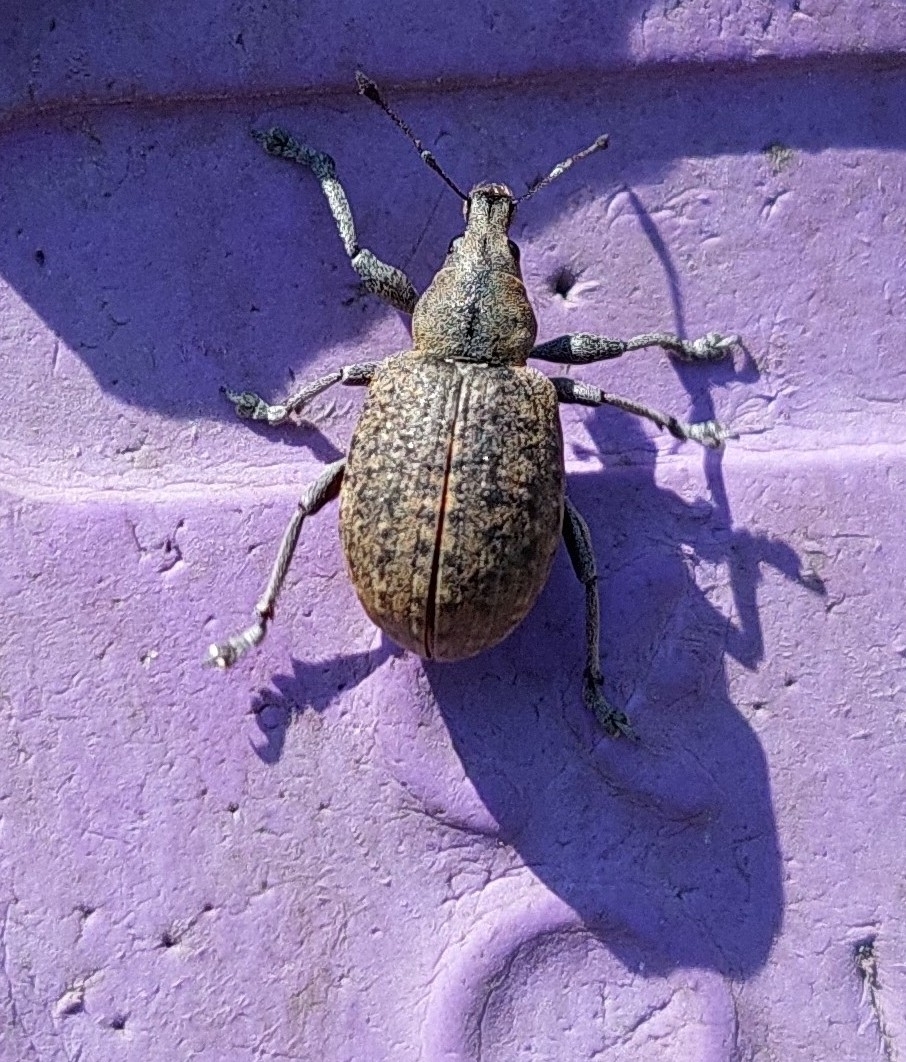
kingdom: Animalia
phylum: Arthropoda
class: Insecta
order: Coleoptera
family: Curculionidae
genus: Liophloeus
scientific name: Liophloeus tessulatus
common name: Weevil
